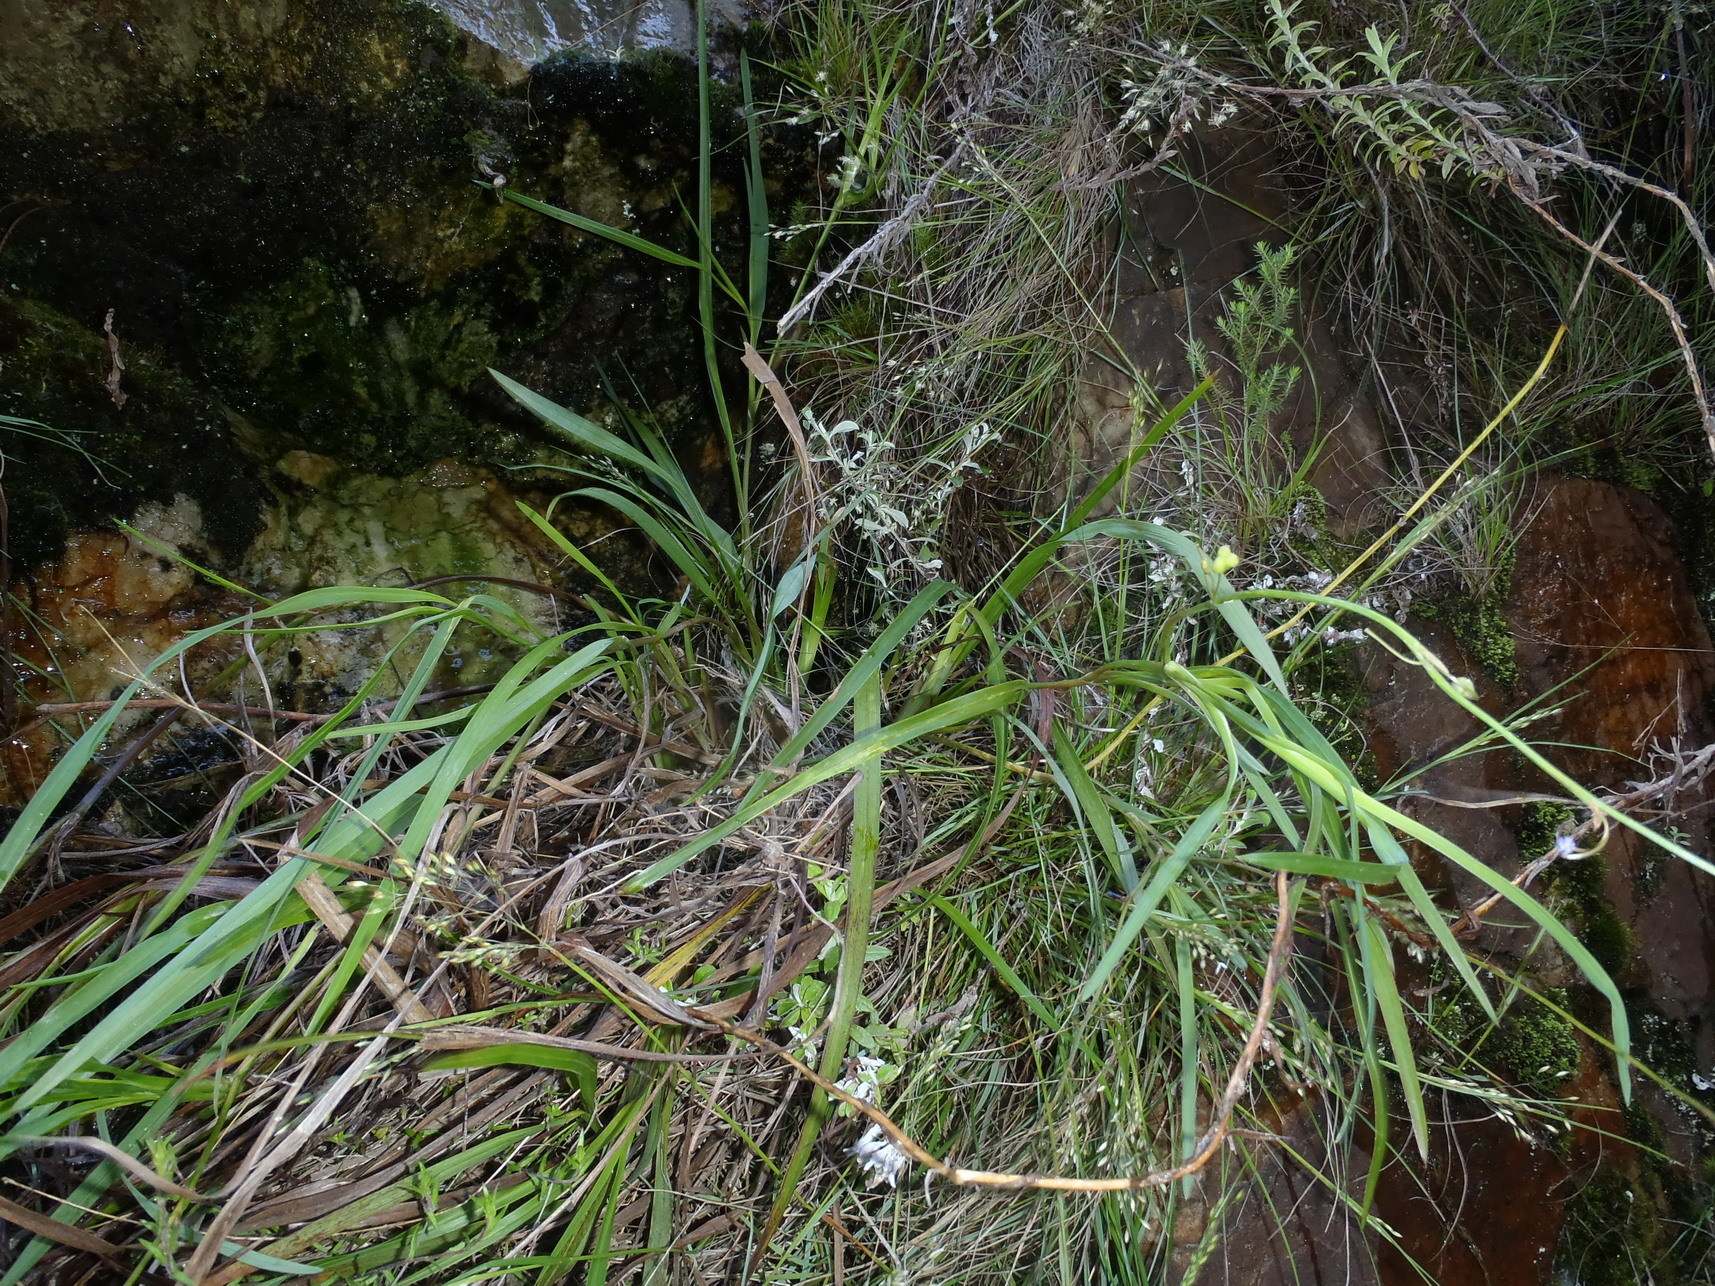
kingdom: Plantae
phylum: Tracheophyta
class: Liliopsida
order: Asparagales
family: Asphodelaceae
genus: Caesia
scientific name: Caesia contorta
